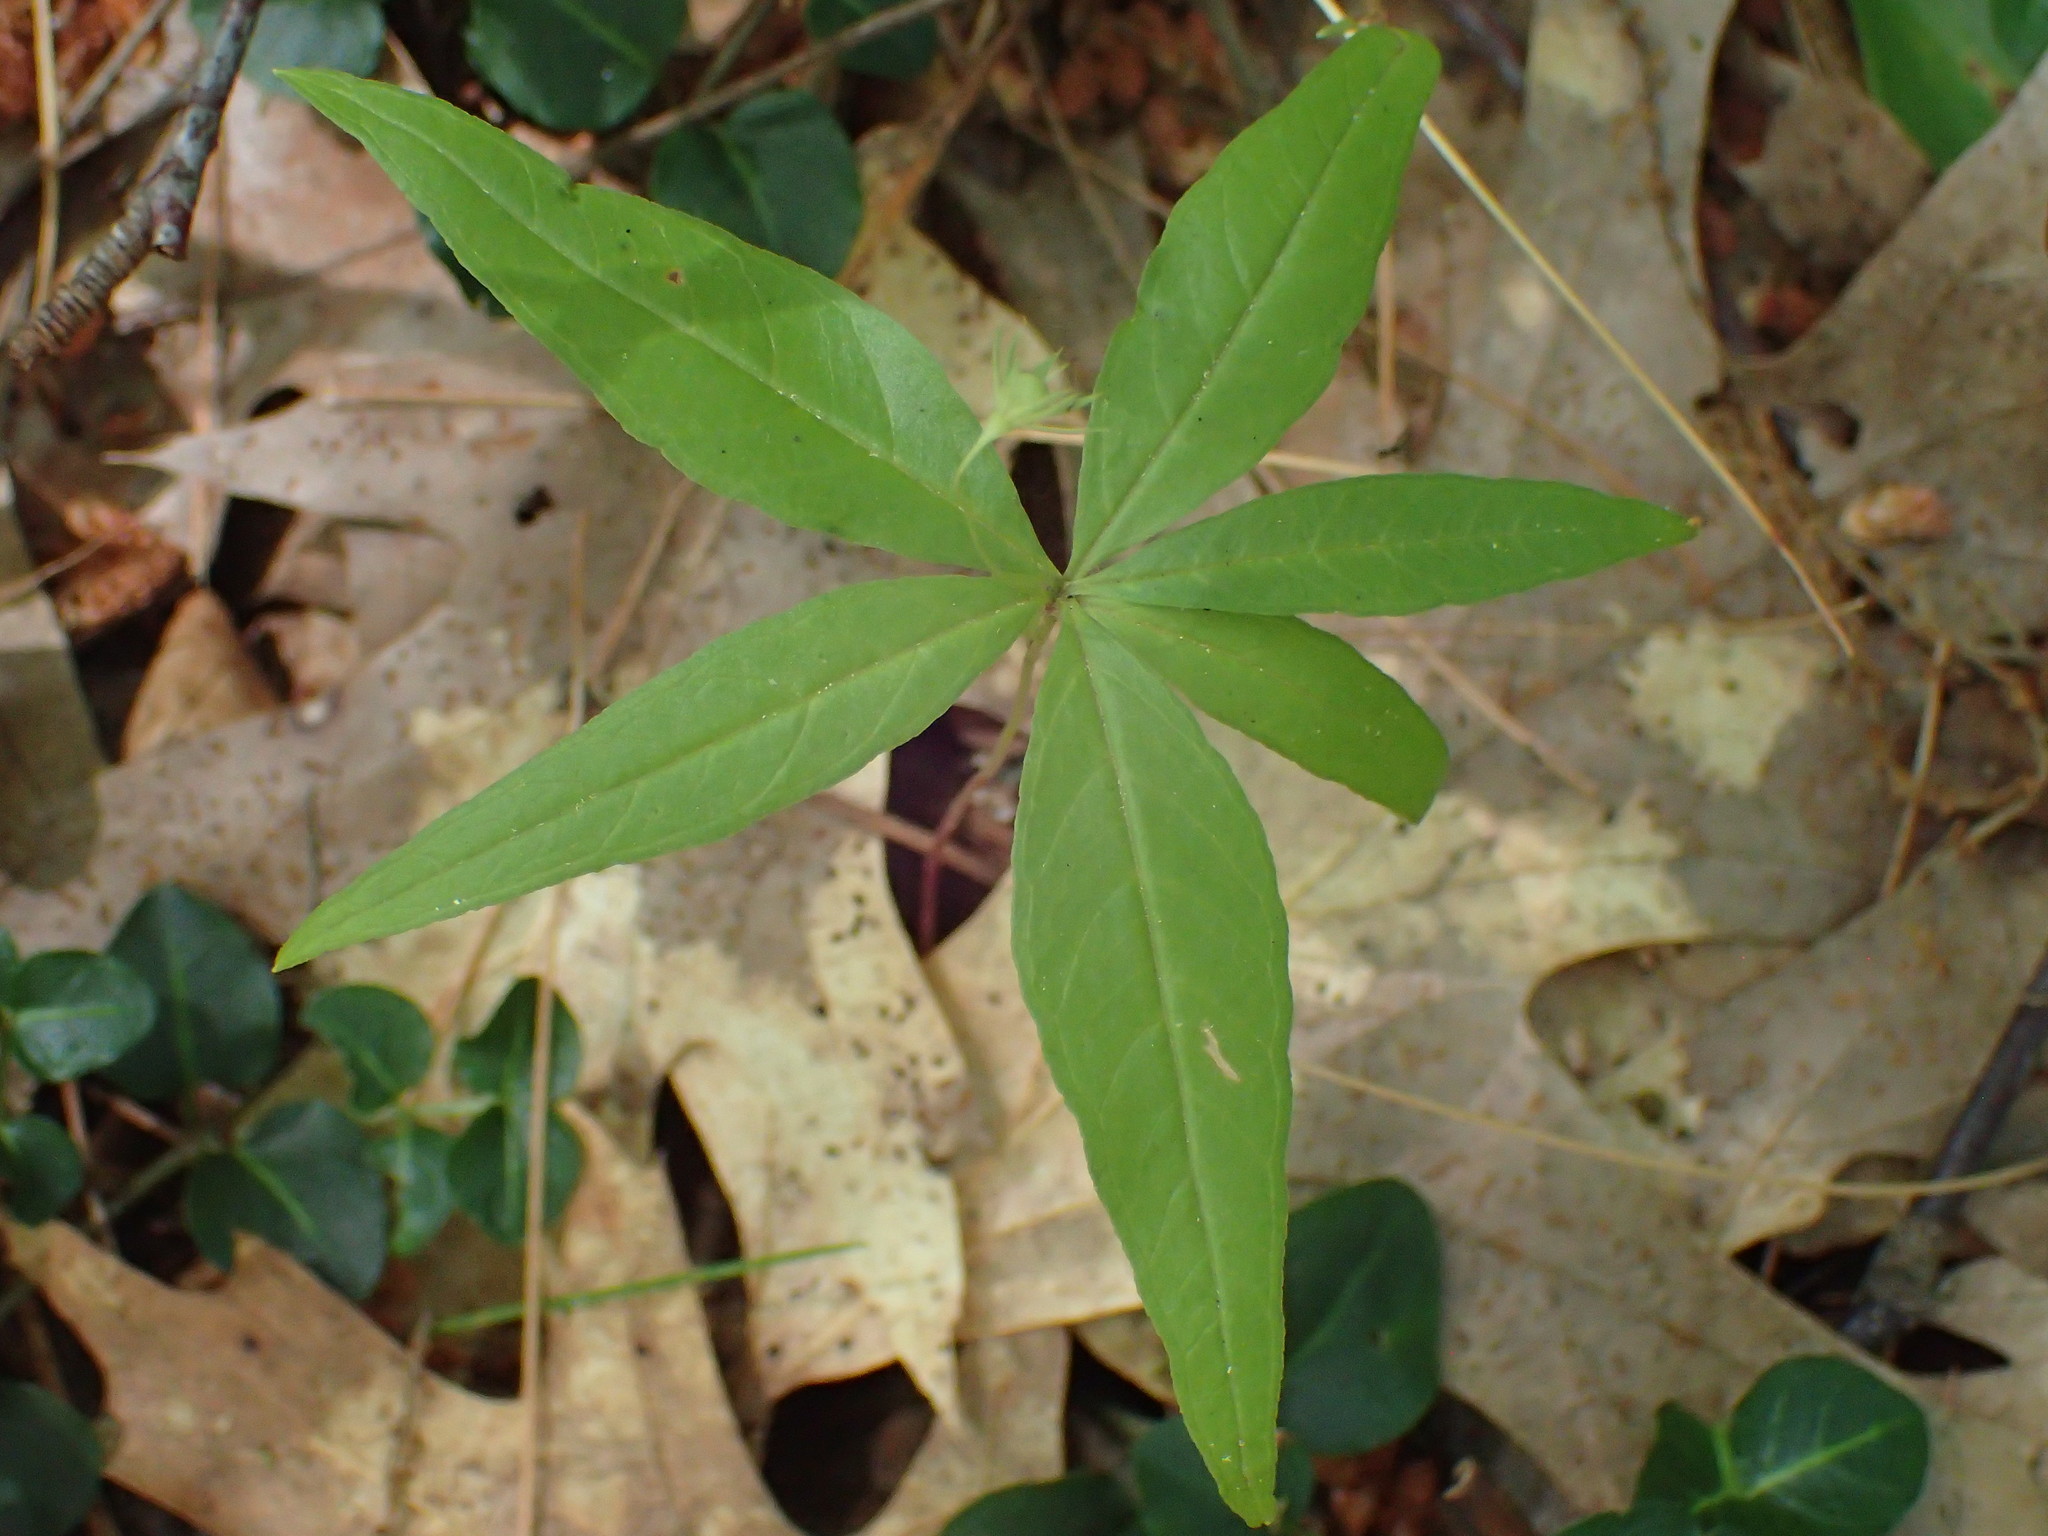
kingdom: Plantae
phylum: Tracheophyta
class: Magnoliopsida
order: Ericales
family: Primulaceae
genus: Lysimachia
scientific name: Lysimachia borealis
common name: American starflower
